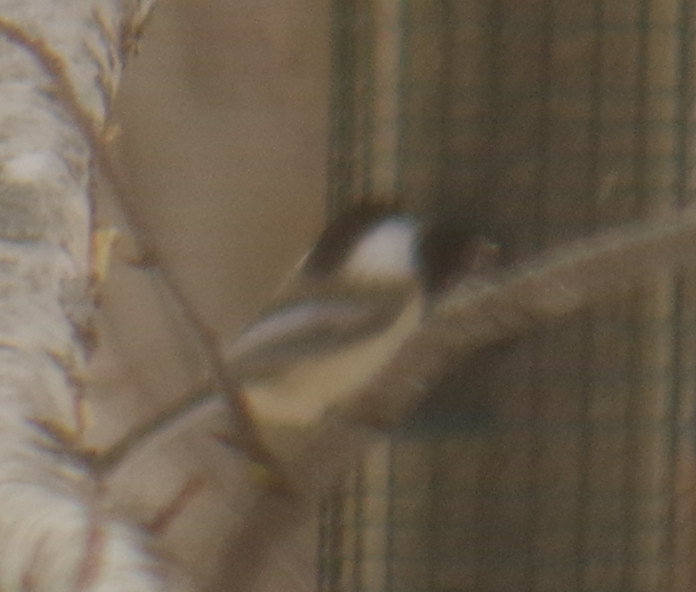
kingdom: Animalia
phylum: Chordata
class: Aves
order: Passeriformes
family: Paridae
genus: Poecile
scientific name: Poecile atricapillus
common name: Black-capped chickadee
